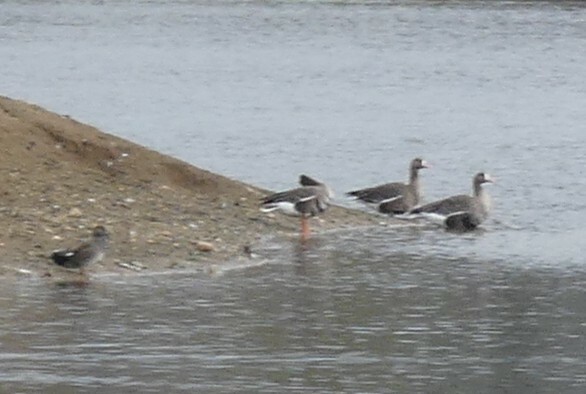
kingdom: Animalia
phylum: Chordata
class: Aves
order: Anseriformes
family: Anatidae
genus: Anser
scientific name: Anser albifrons
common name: Greater white-fronted goose
